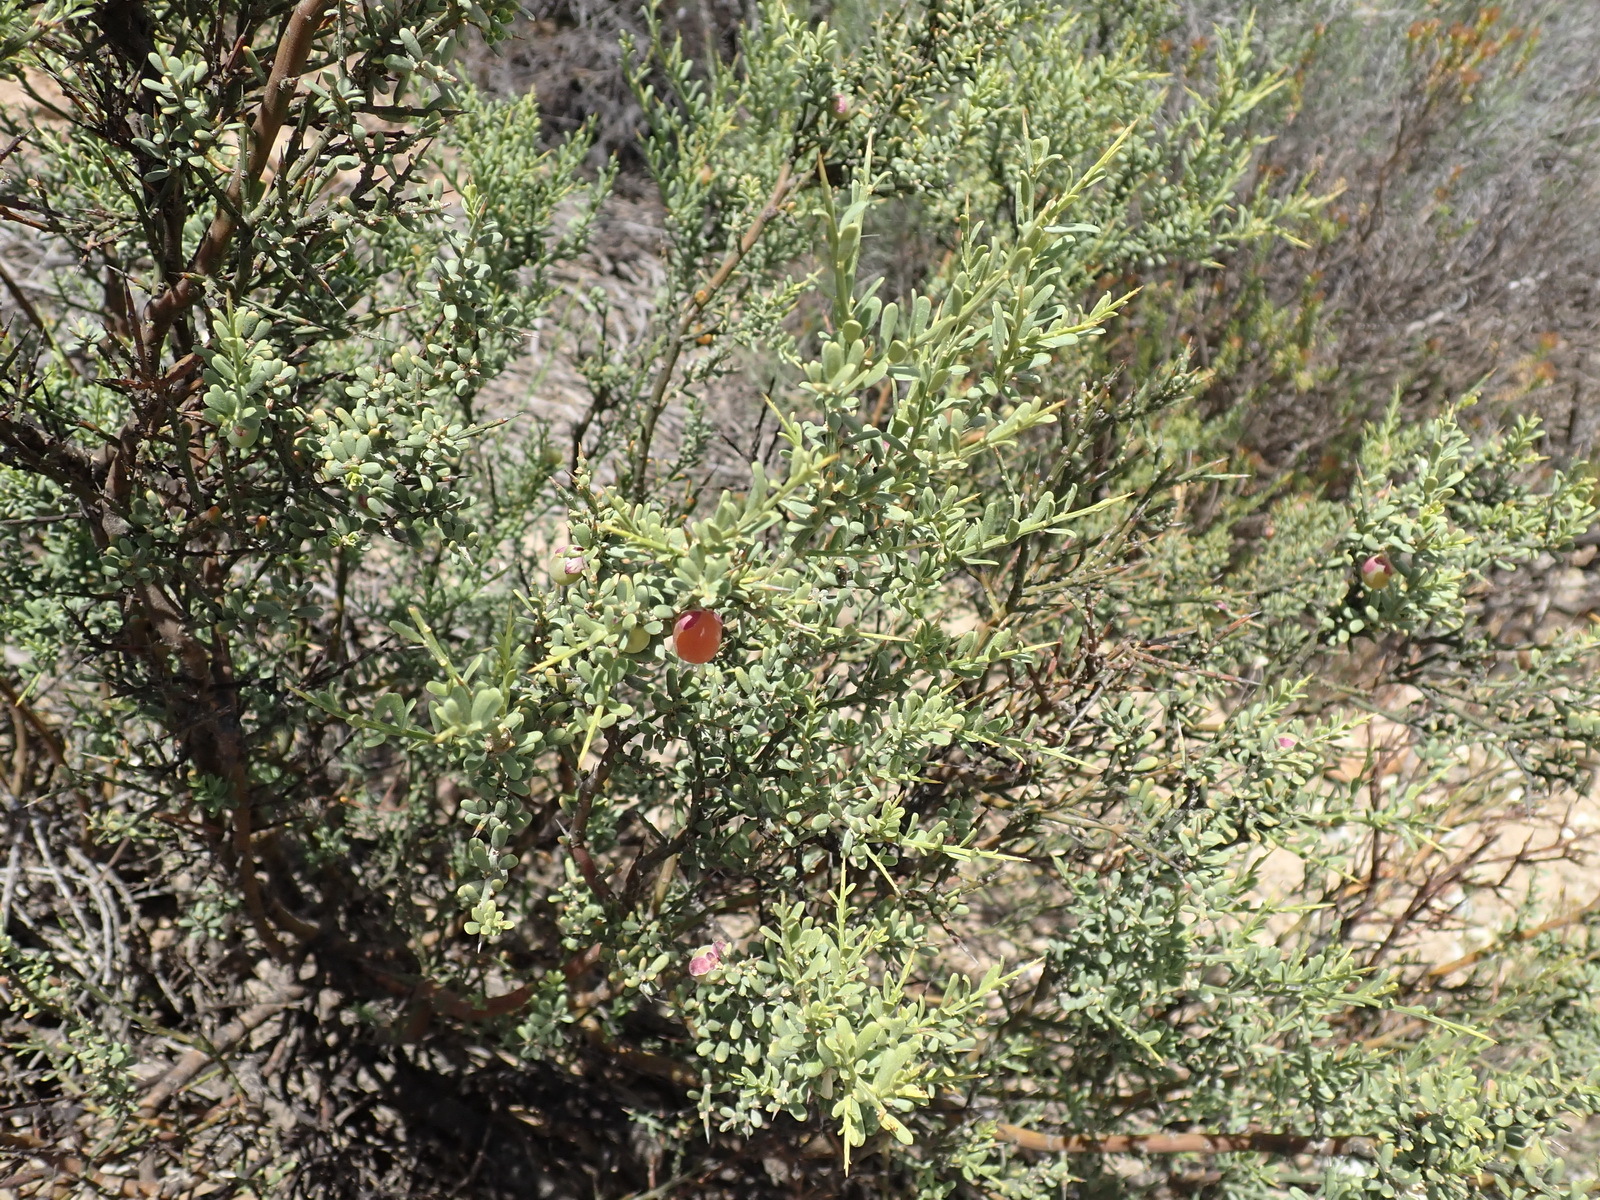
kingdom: Plantae
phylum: Tracheophyta
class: Magnoliopsida
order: Fabales
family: Polygalaceae
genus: Muraltia
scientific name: Muraltia spinosa
